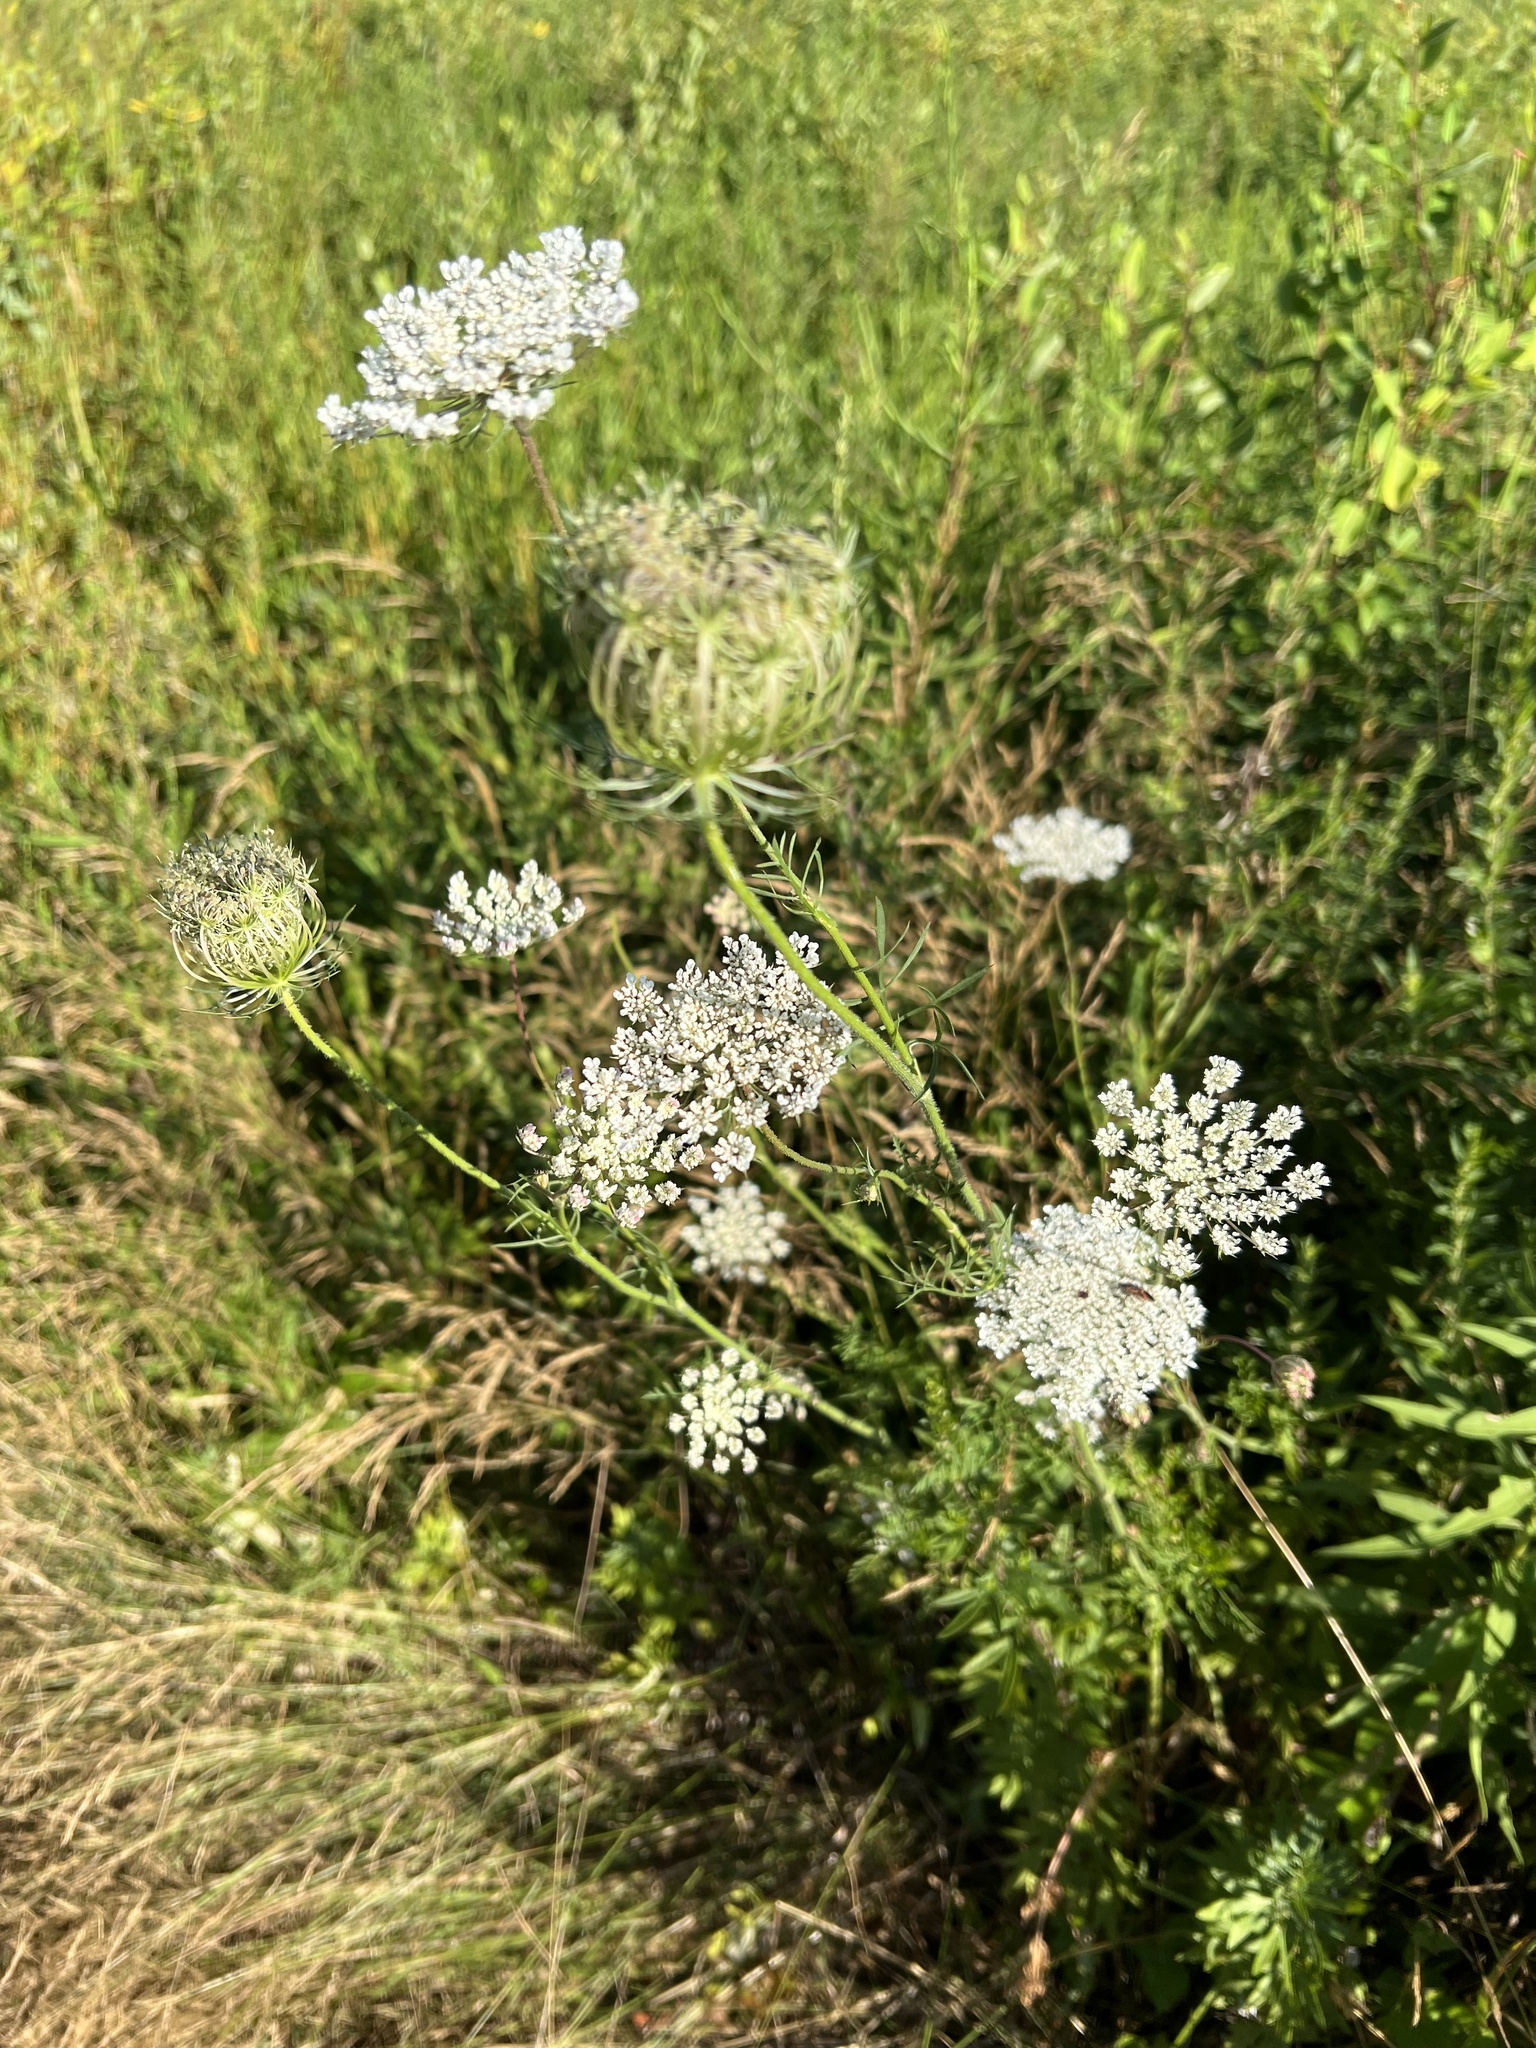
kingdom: Plantae
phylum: Tracheophyta
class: Magnoliopsida
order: Apiales
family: Apiaceae
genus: Daucus
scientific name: Daucus carota
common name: Wild carrot
